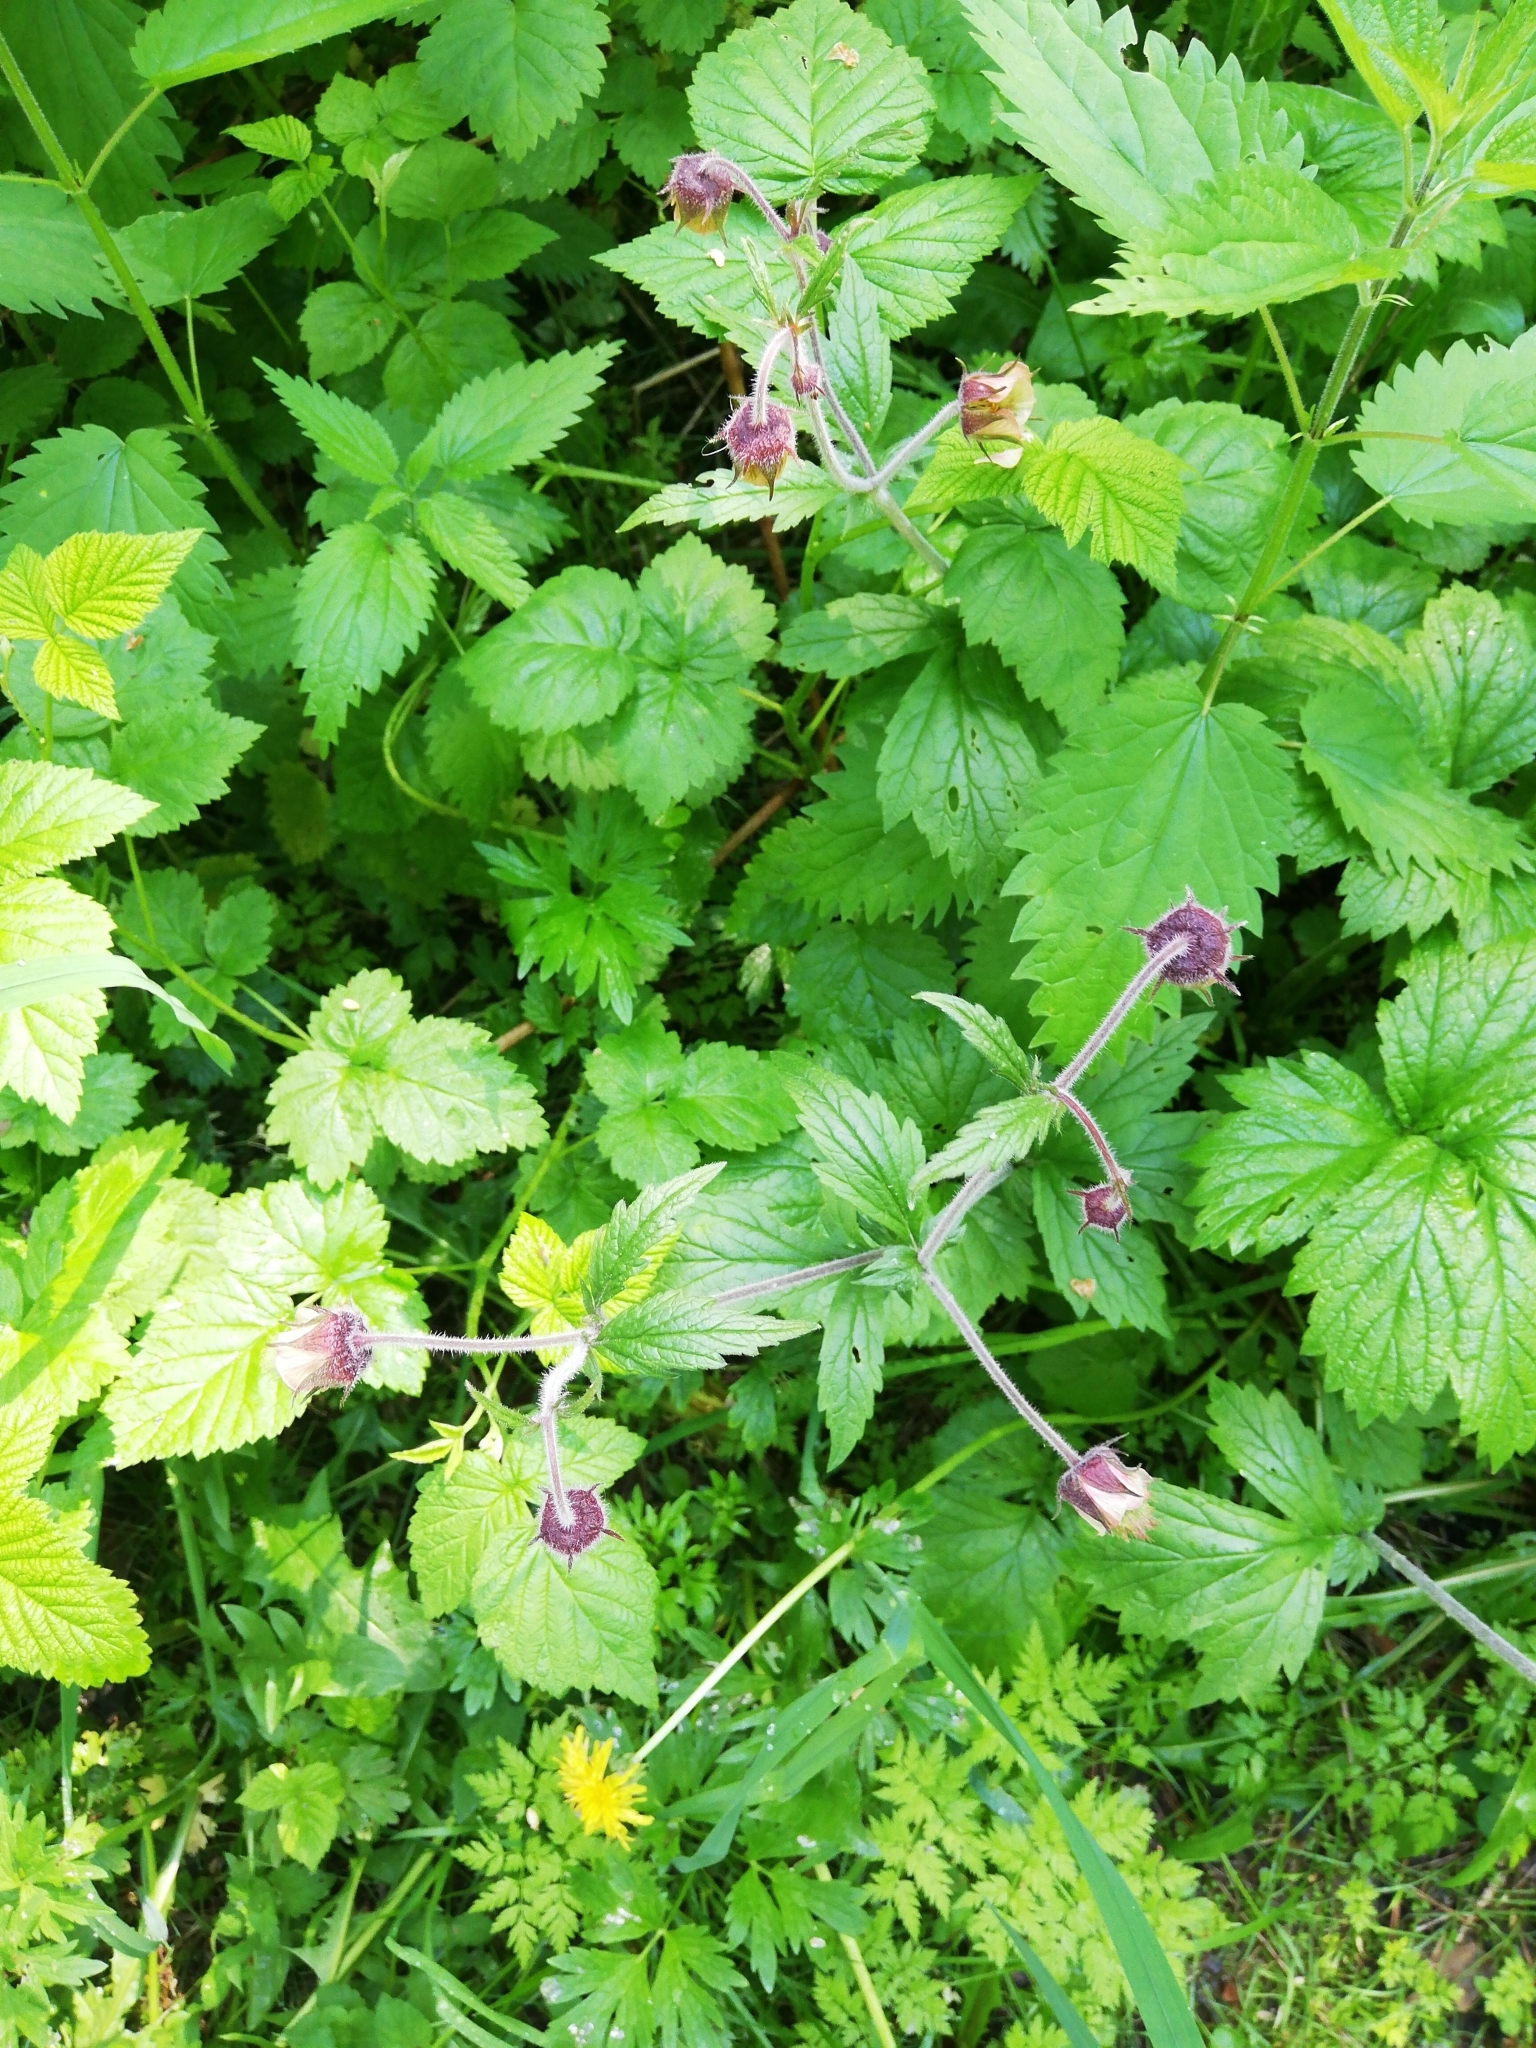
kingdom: Plantae
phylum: Tracheophyta
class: Magnoliopsida
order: Rosales
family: Rosaceae
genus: Geum
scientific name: Geum rivale
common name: Water avens
